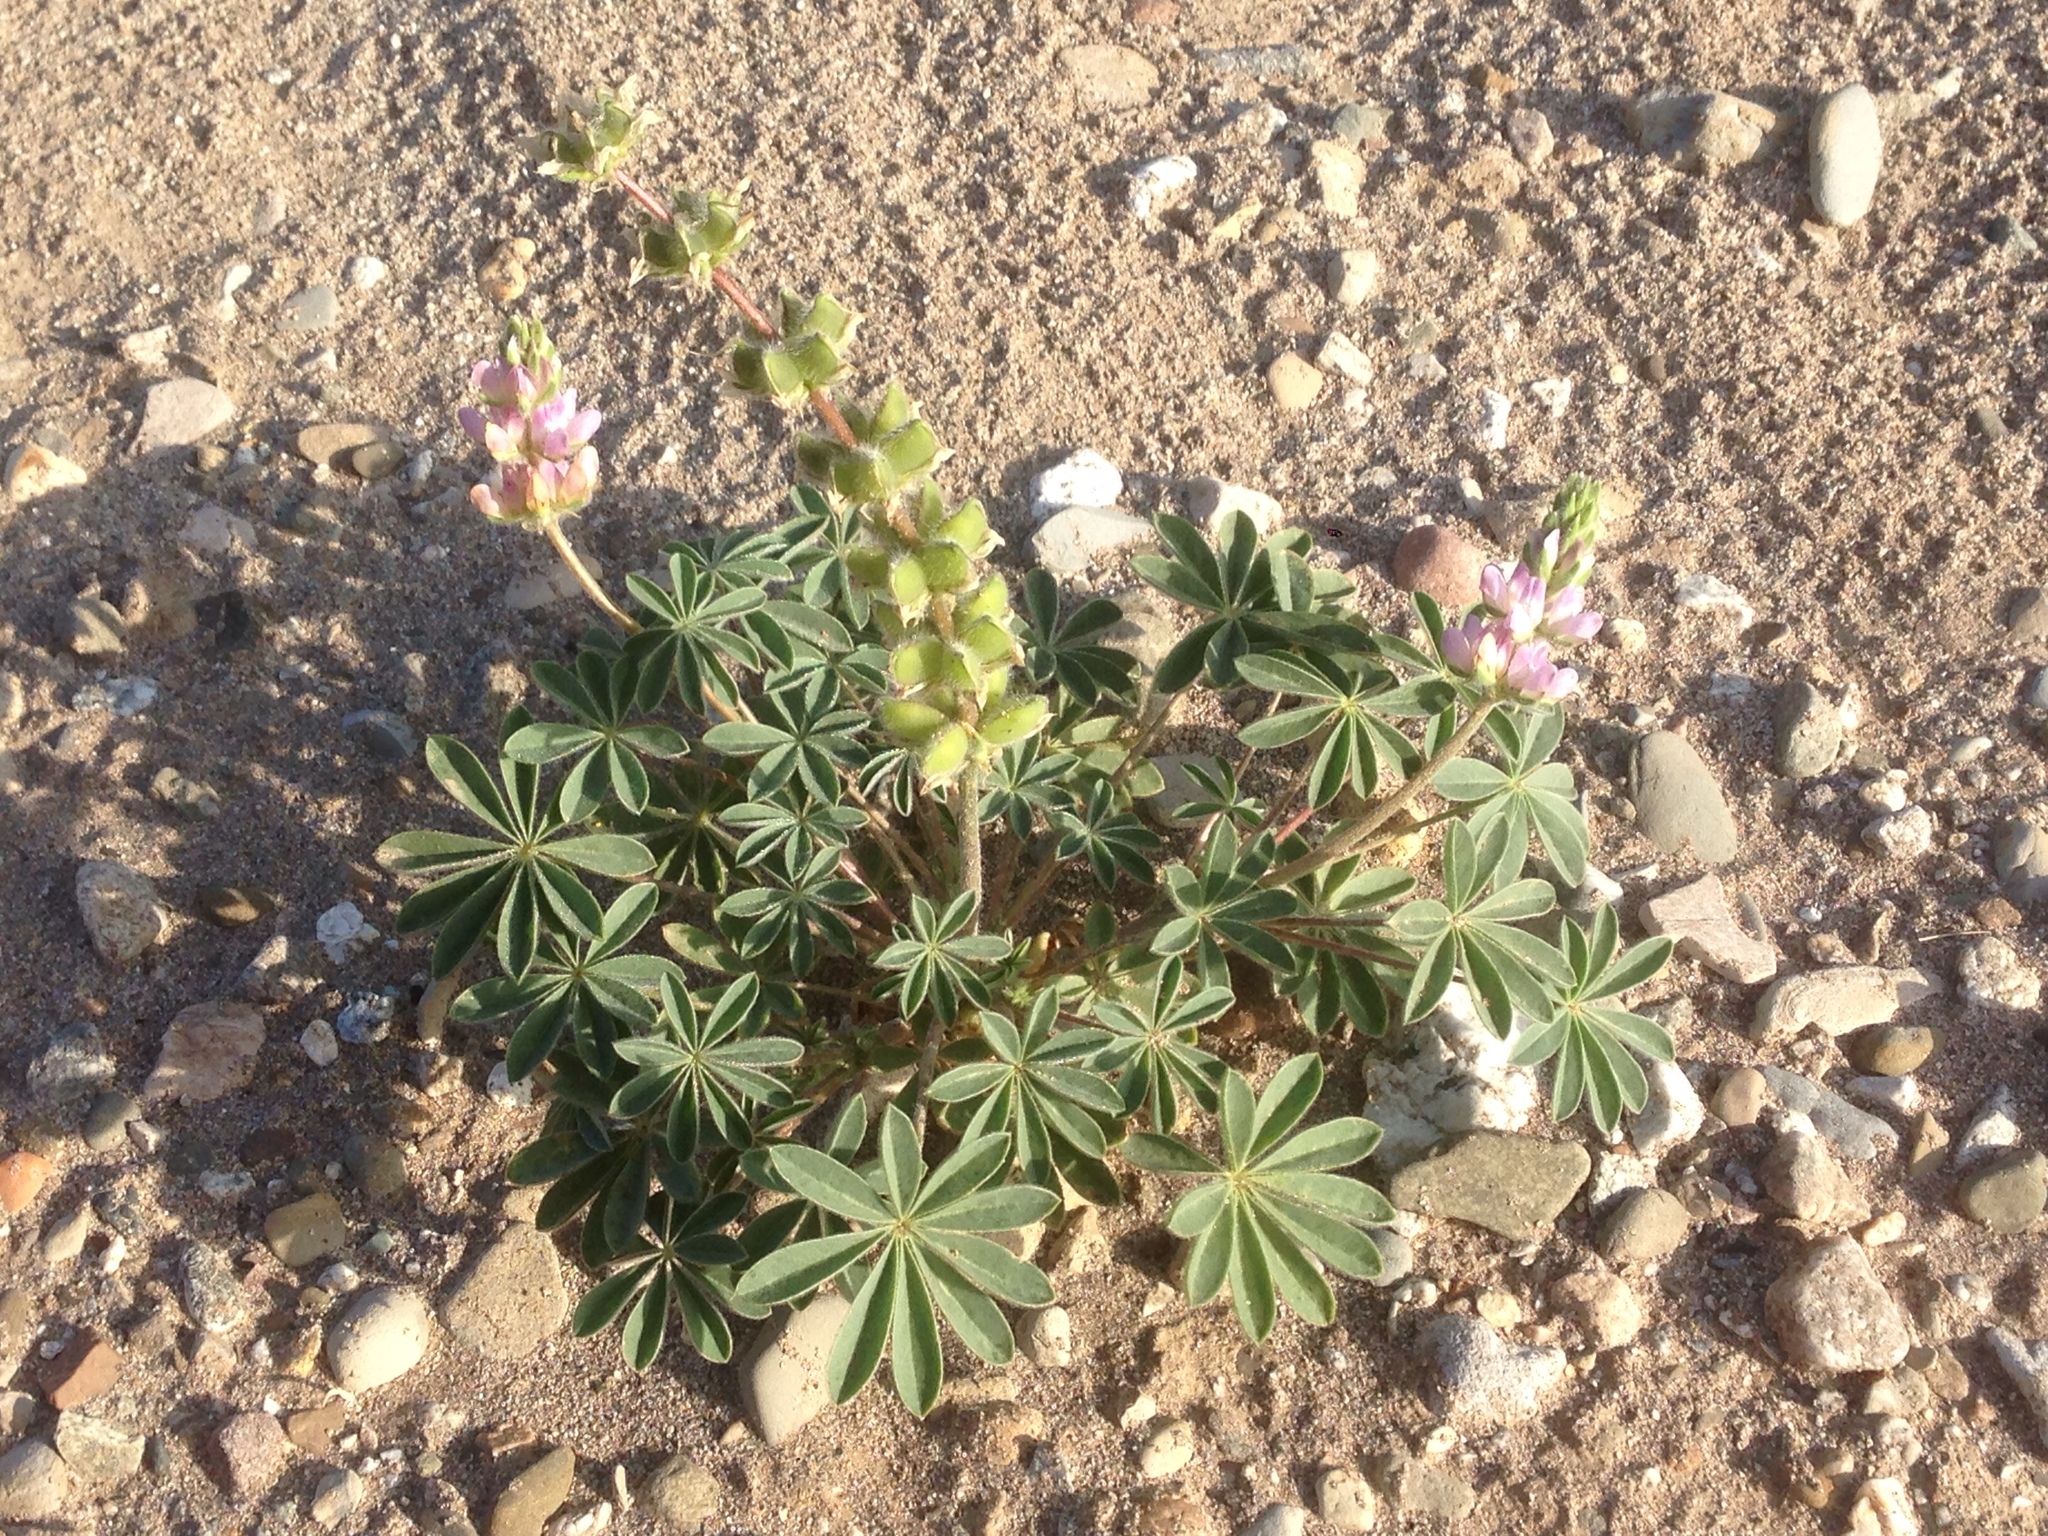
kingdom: Plantae
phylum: Tracheophyta
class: Magnoliopsida
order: Fabales
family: Fabaceae
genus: Lupinus
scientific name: Lupinus microcarpus
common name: Chick lupine
